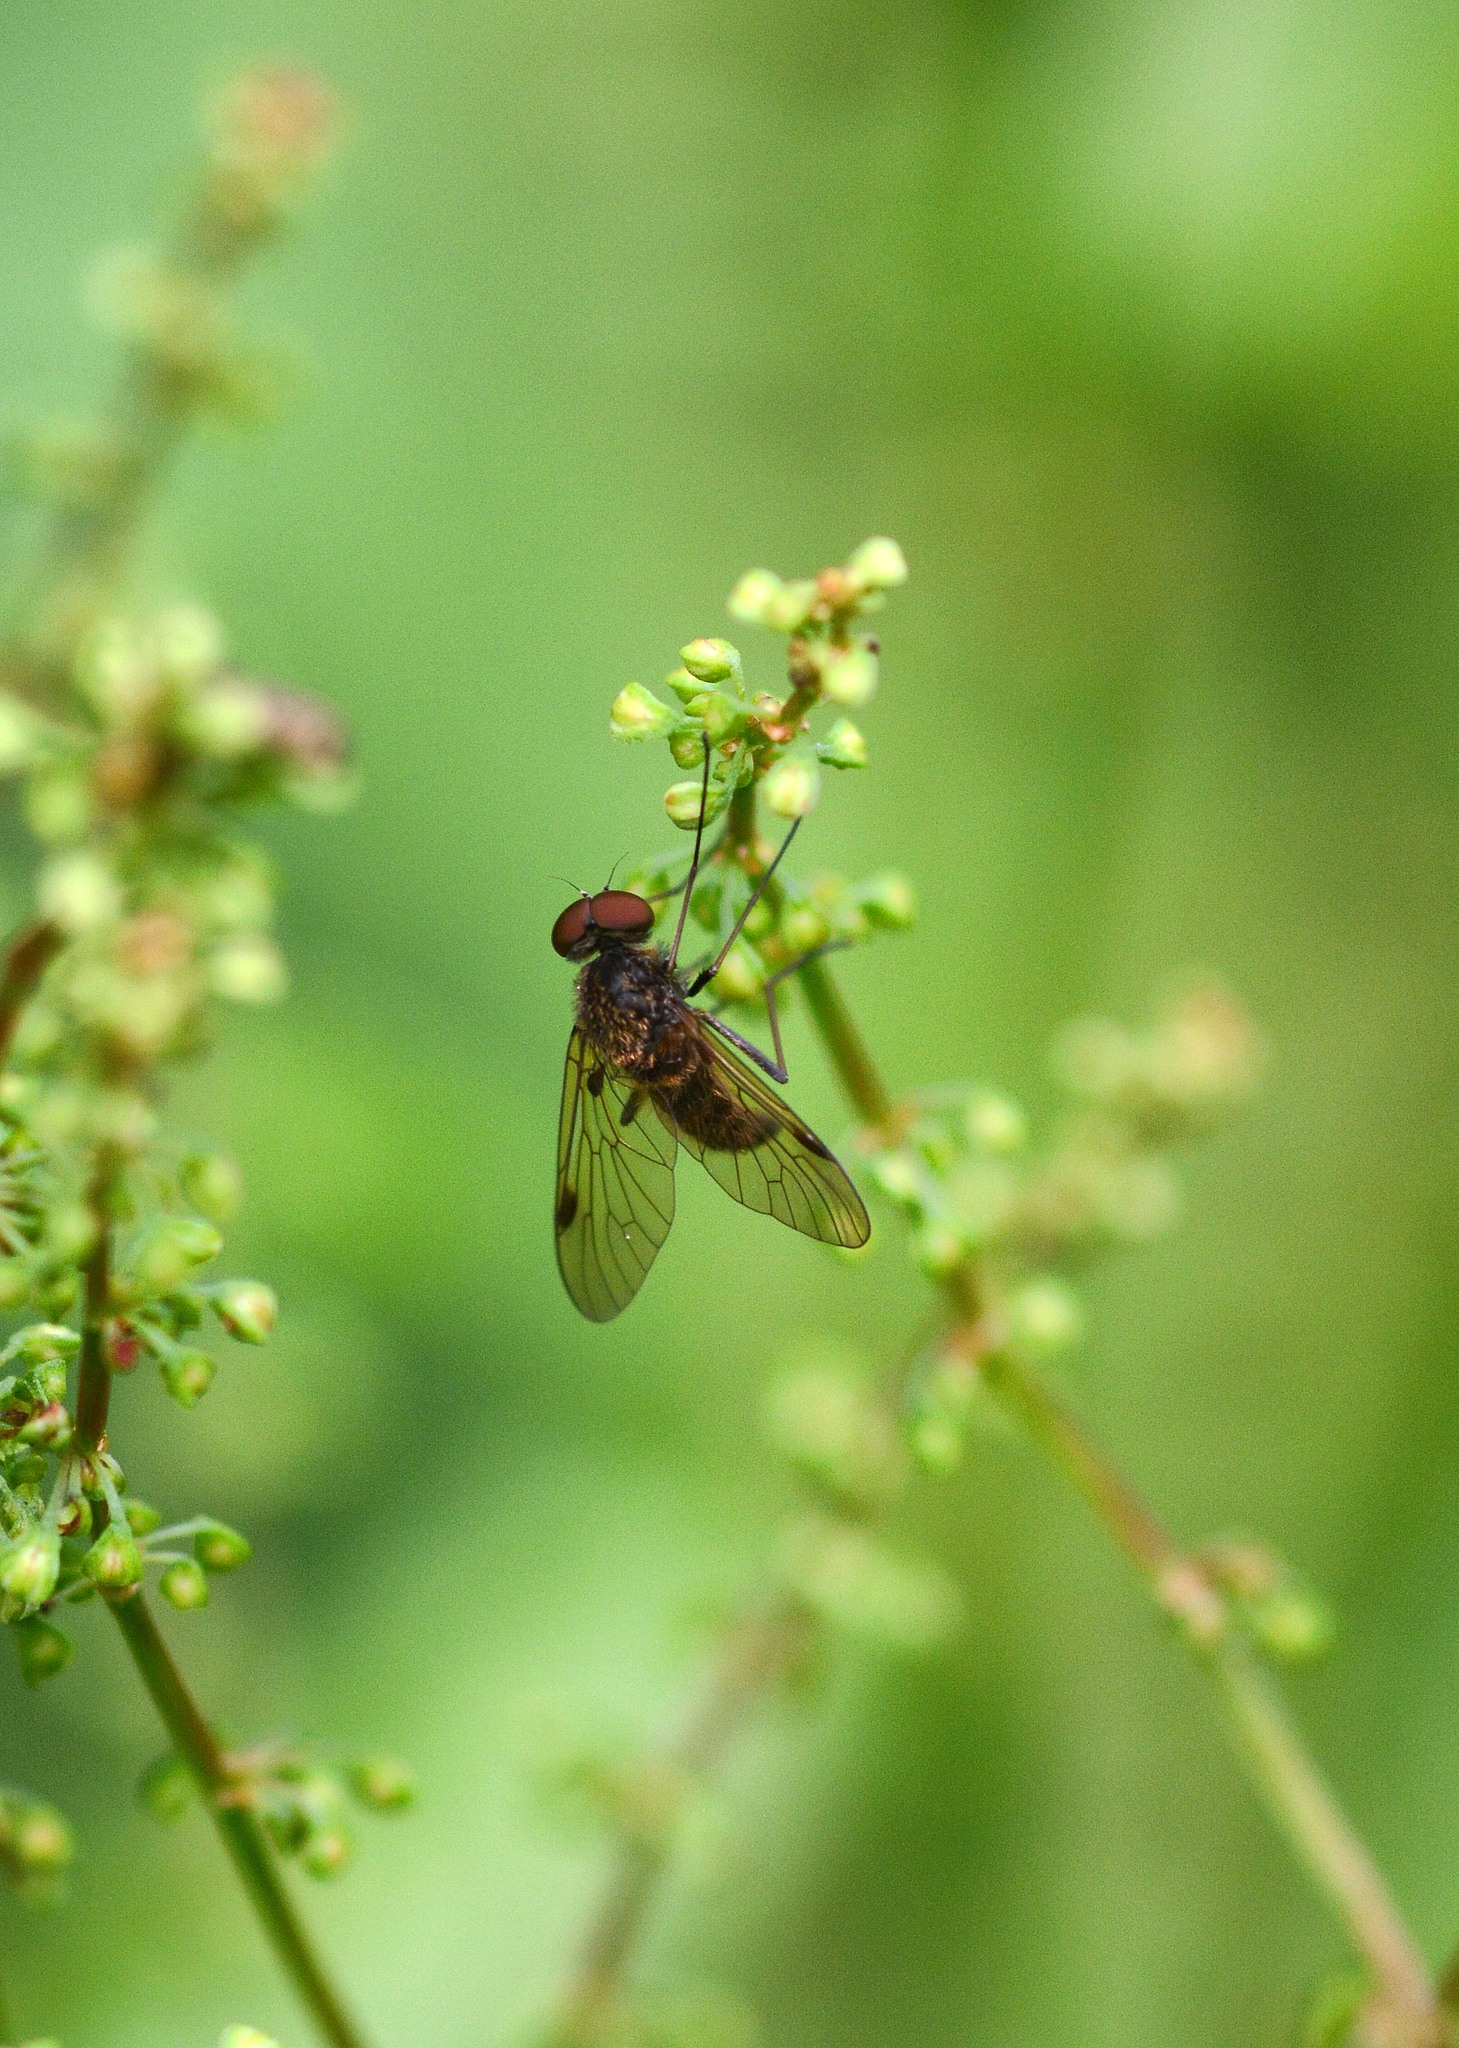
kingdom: Animalia
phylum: Arthropoda
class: Insecta
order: Diptera
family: Rhagionidae
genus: Chrysopilus
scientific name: Chrysopilus cristatus
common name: Black snipefly
